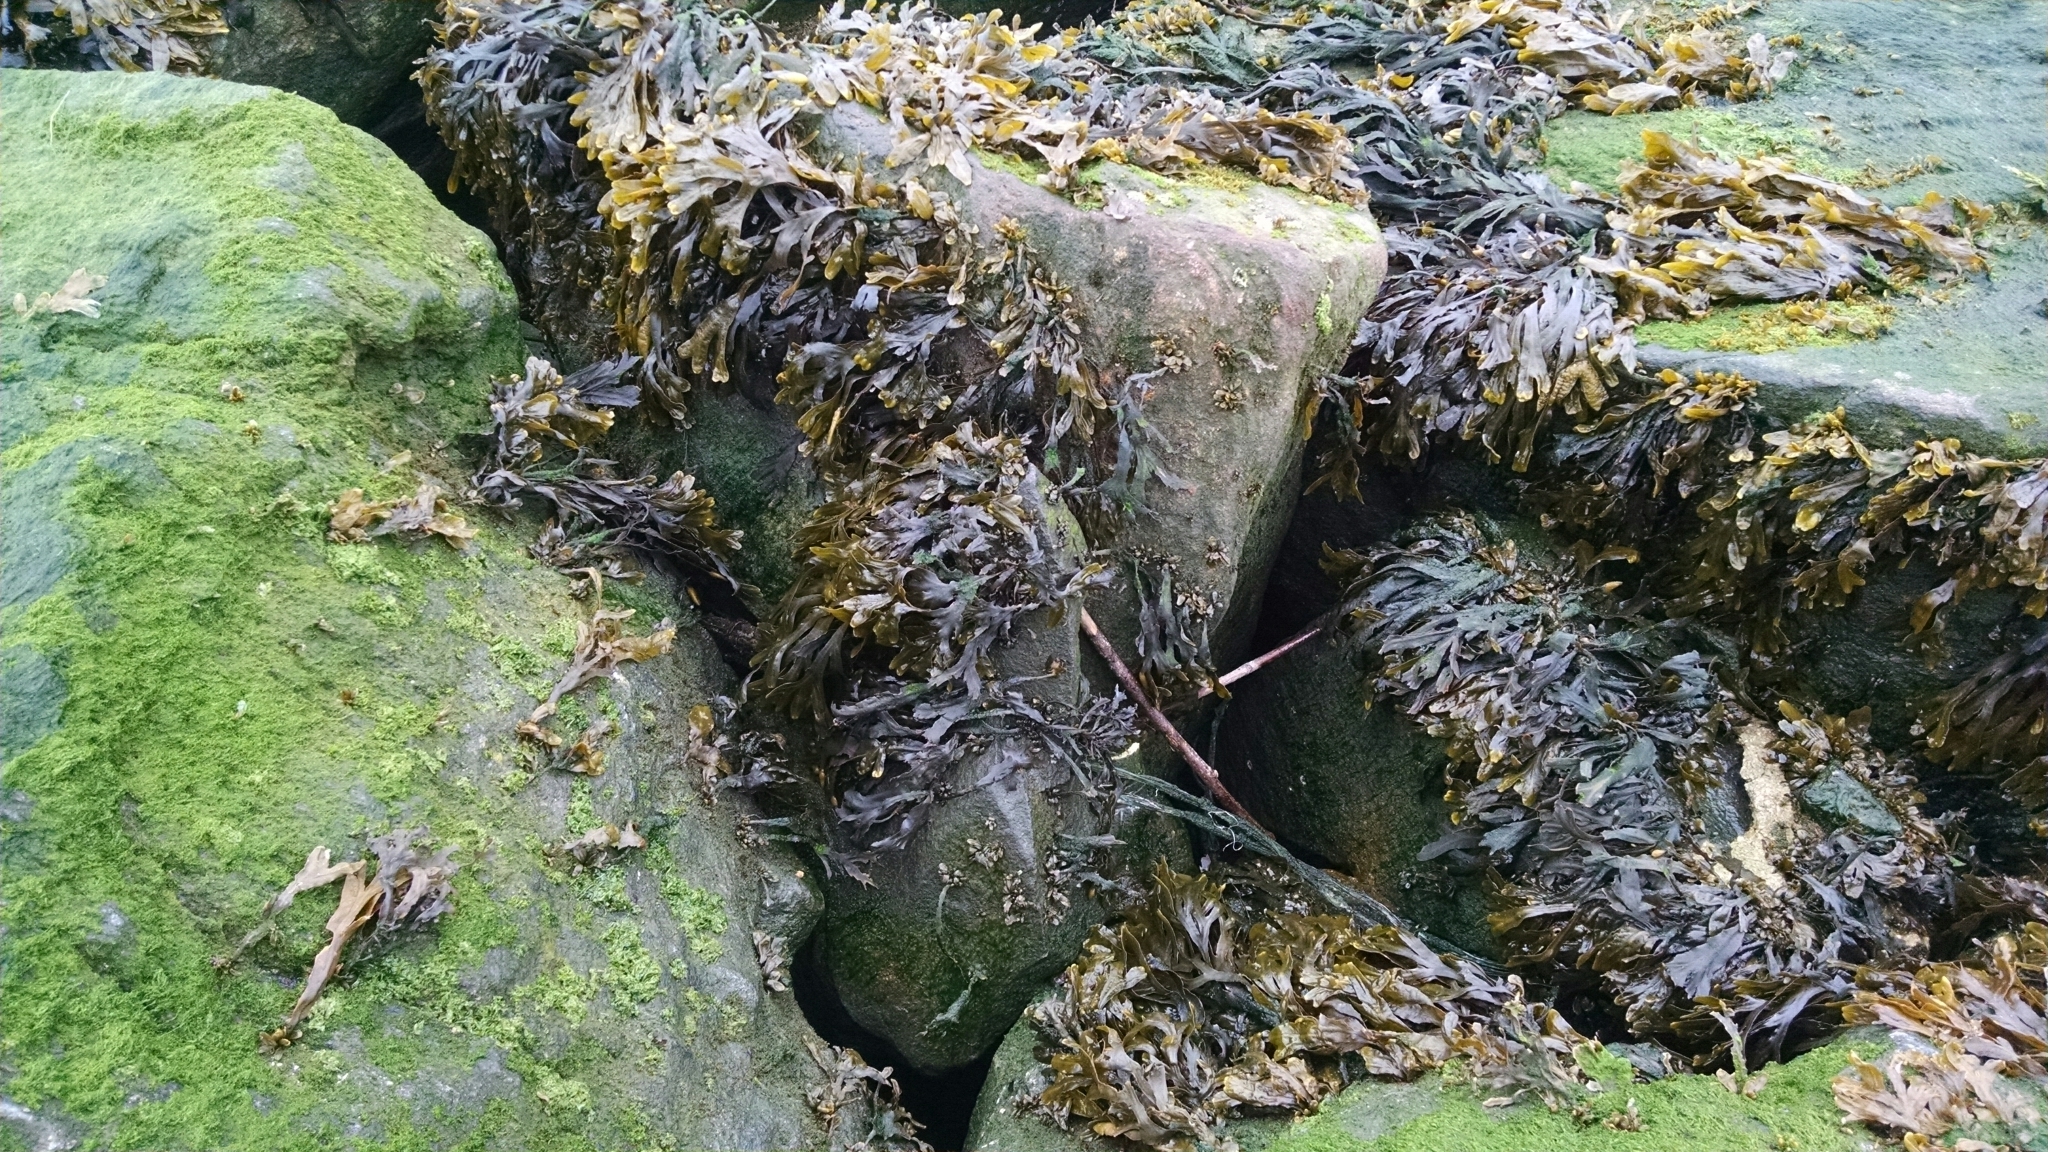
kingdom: Chromista
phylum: Ochrophyta
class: Phaeophyceae
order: Fucales
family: Fucaceae
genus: Fucus
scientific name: Fucus distichus
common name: Rockweed
